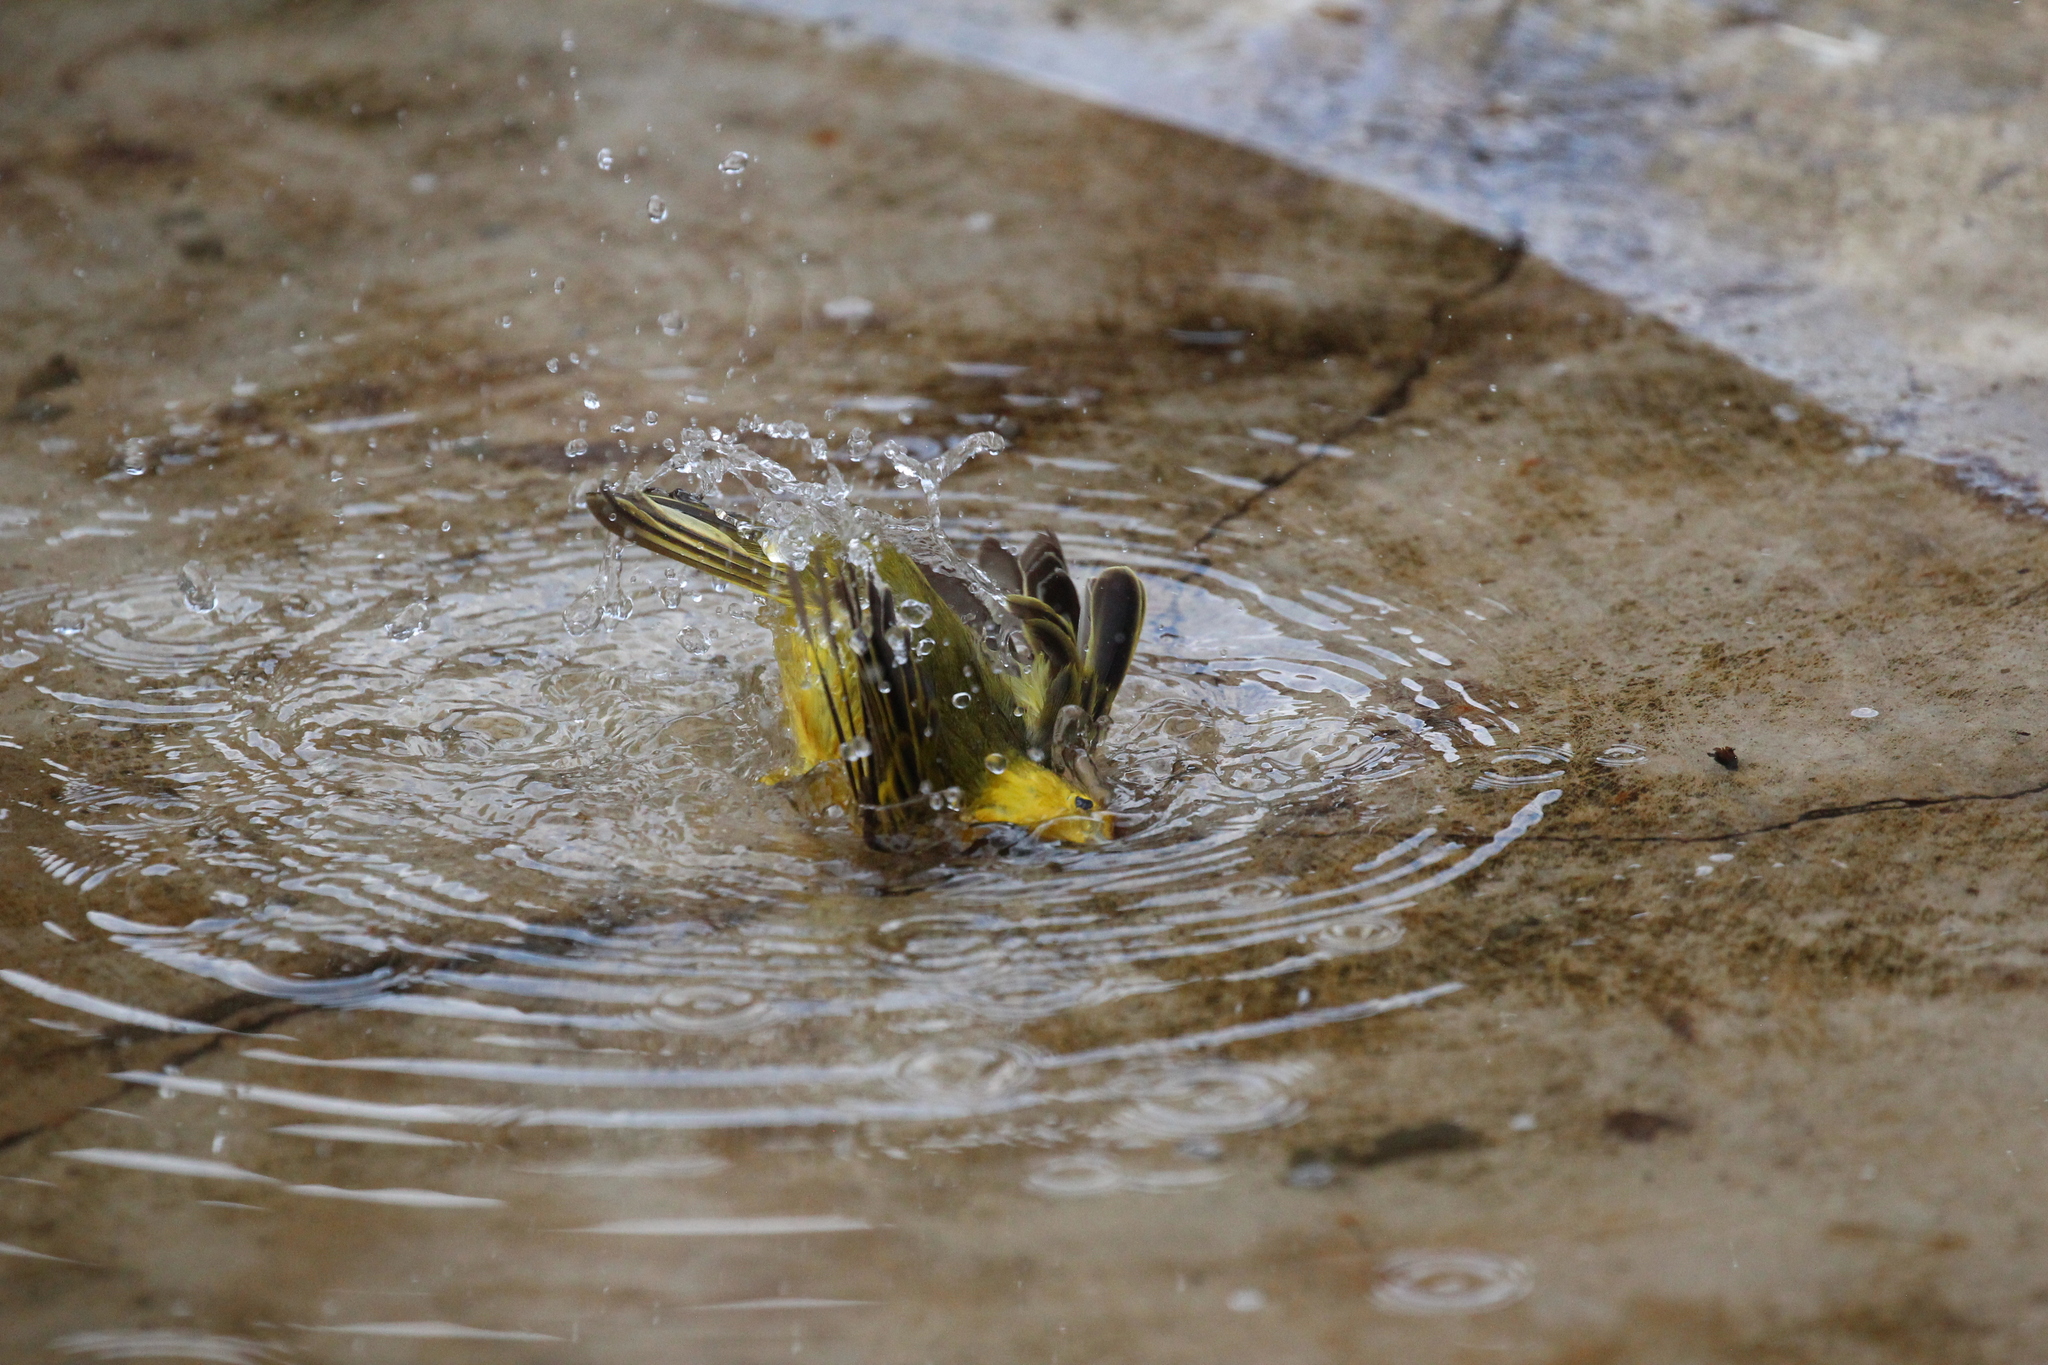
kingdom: Animalia
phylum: Chordata
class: Aves
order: Passeriformes
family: Parulidae
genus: Setophaga
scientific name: Setophaga petechia
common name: Yellow warbler
